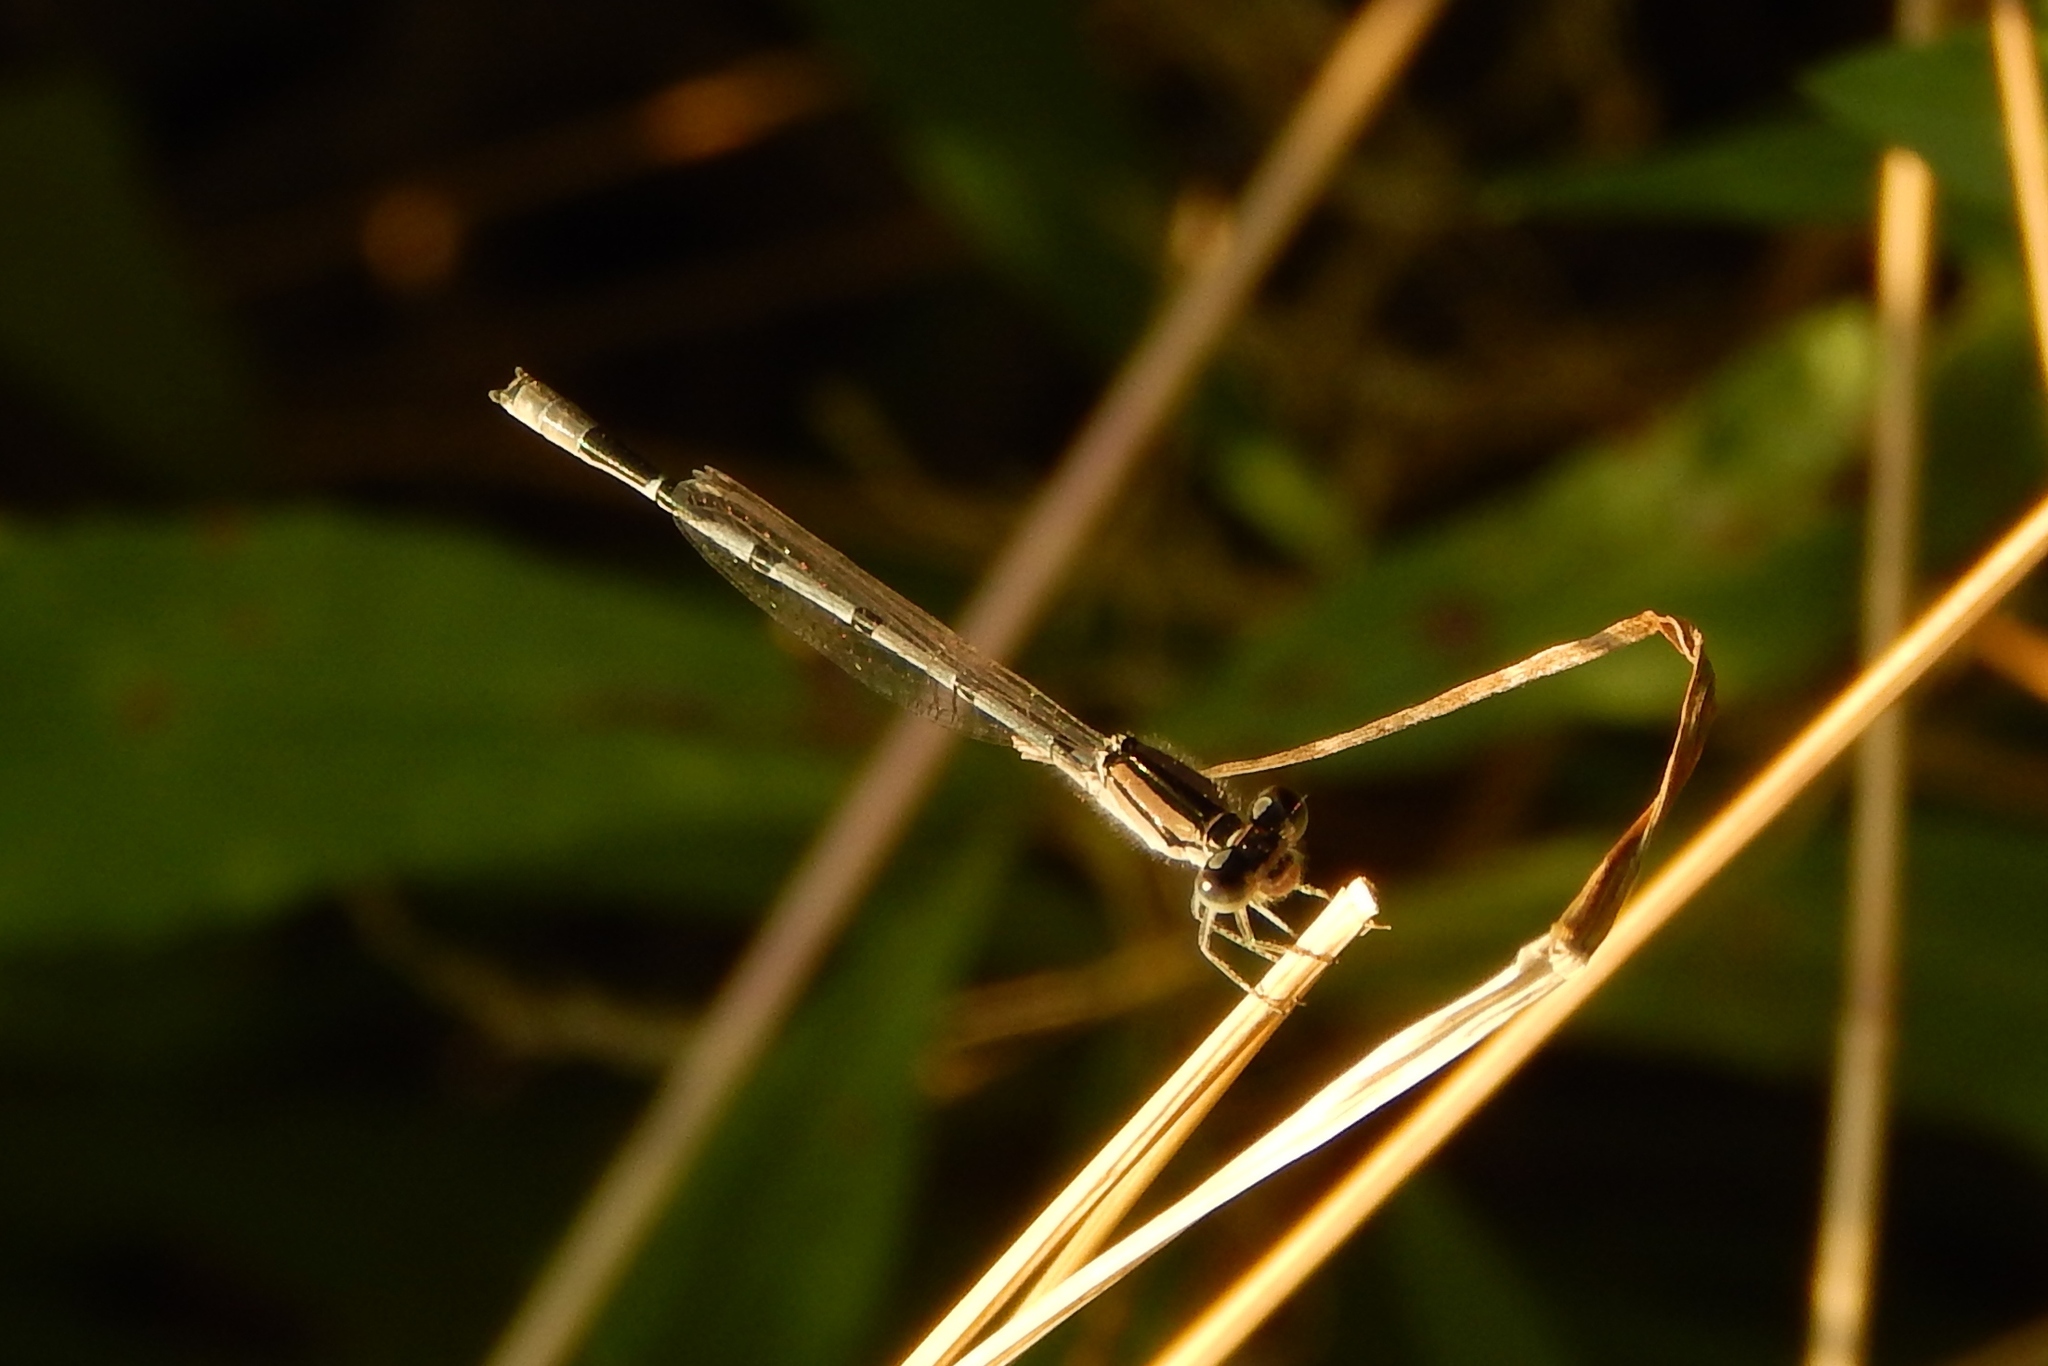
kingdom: Animalia
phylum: Arthropoda
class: Insecta
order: Odonata
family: Coenagrionidae
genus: Enallagma
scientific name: Enallagma civile
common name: Damselfly
